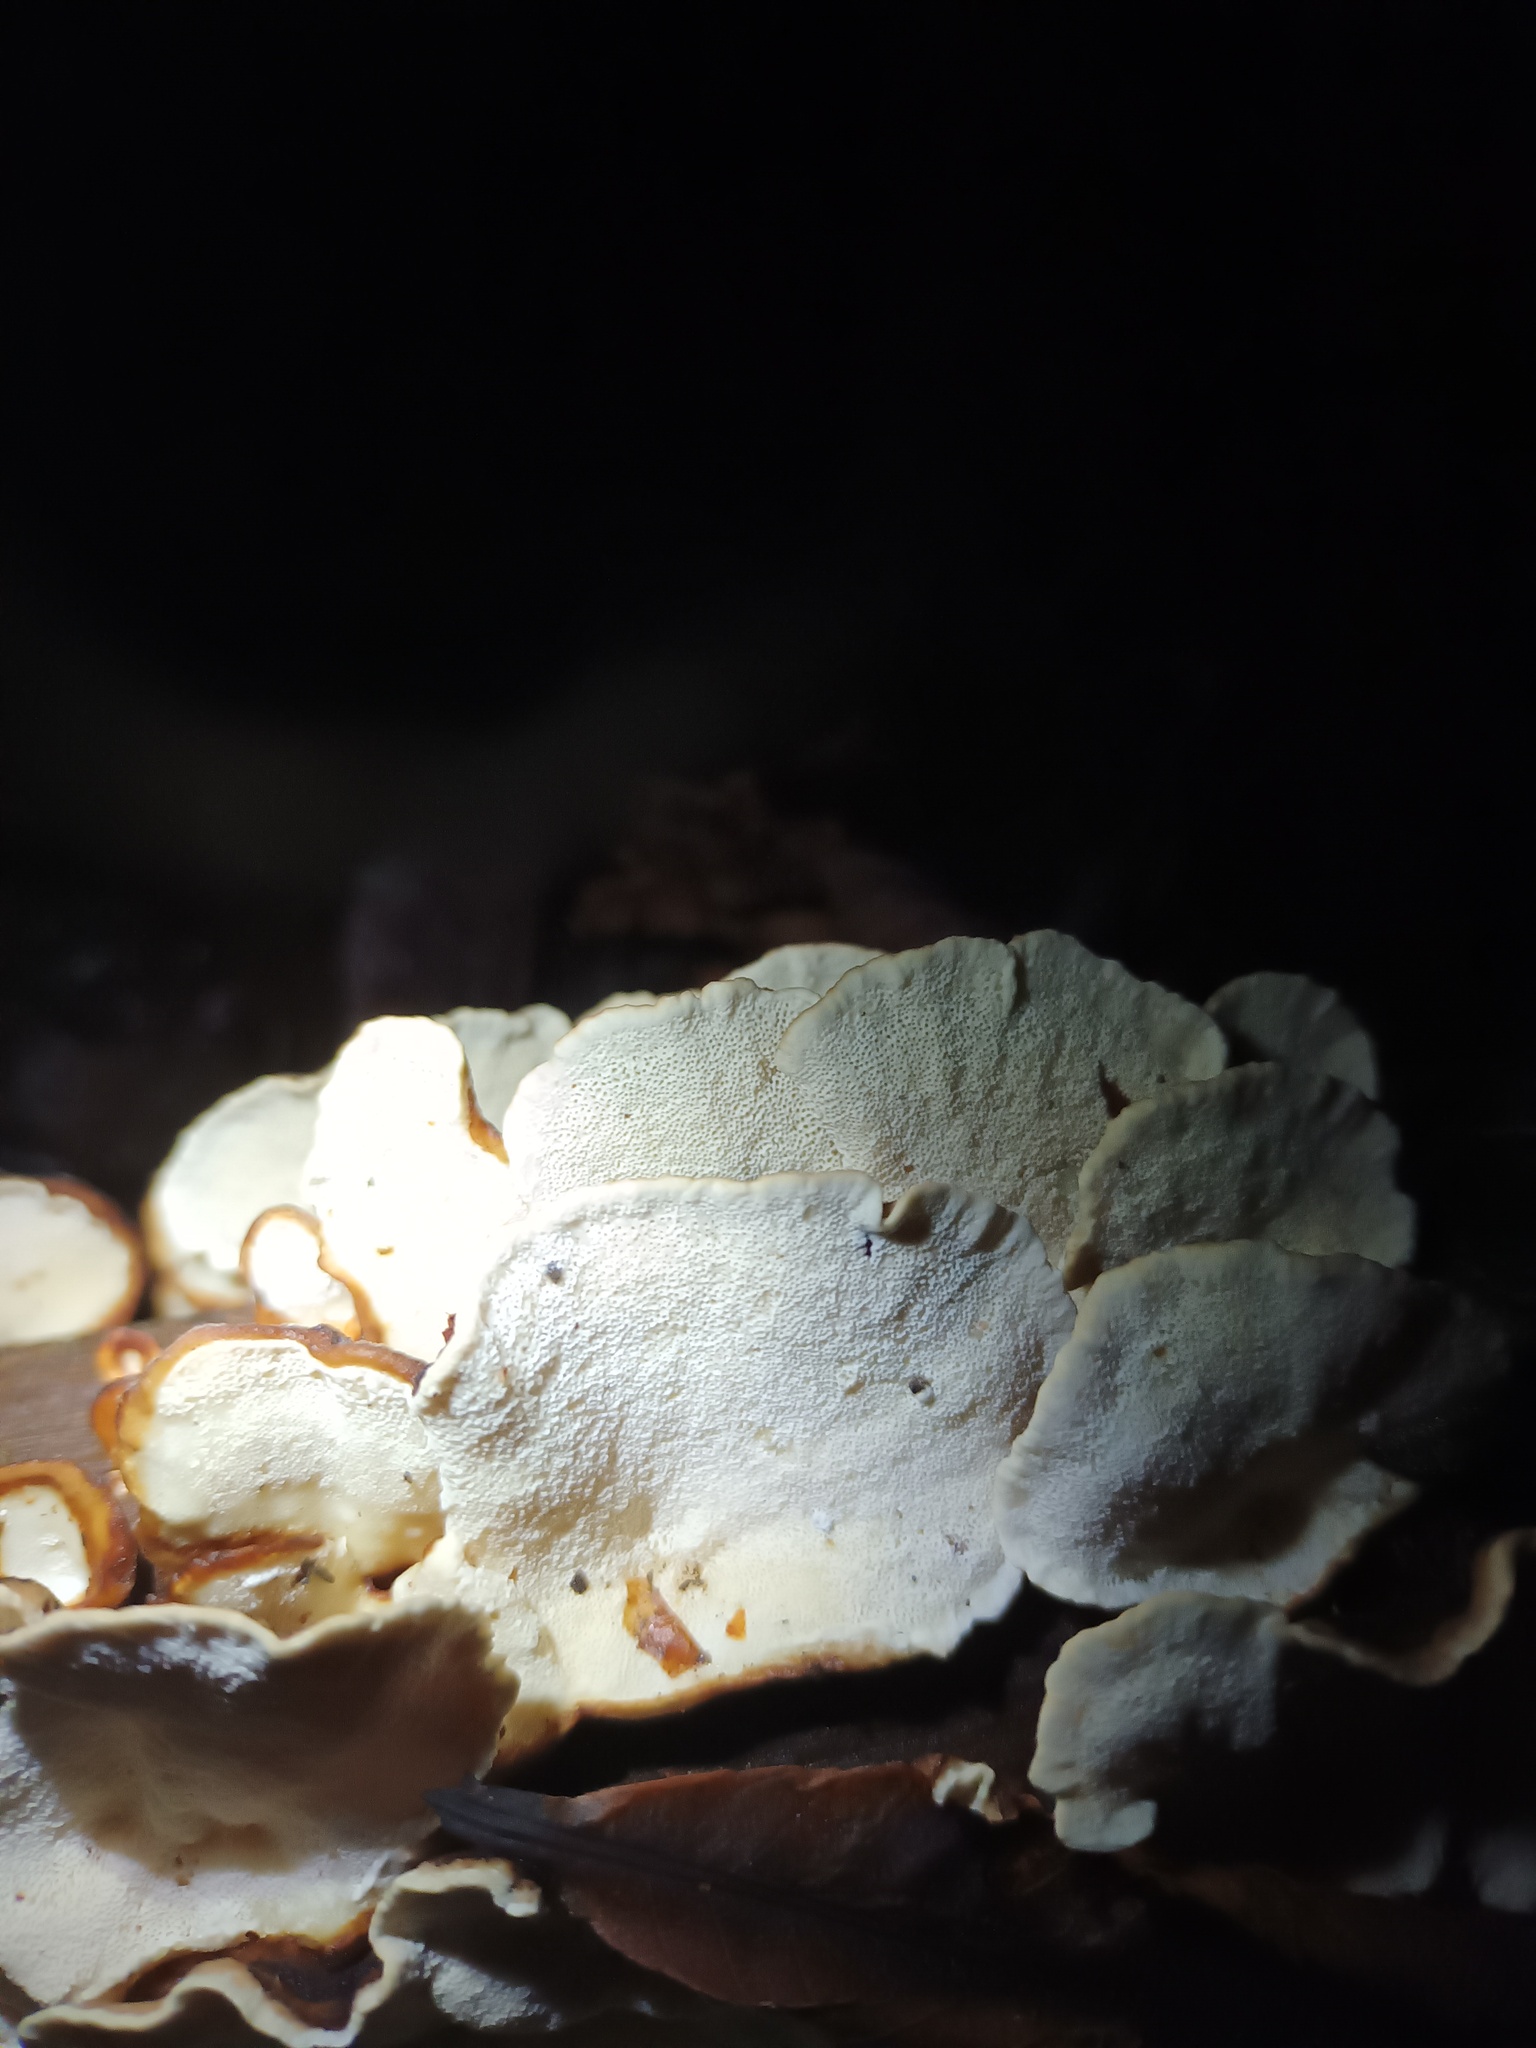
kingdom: Fungi
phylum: Basidiomycota
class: Agaricomycetes
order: Polyporales
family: Polyporaceae
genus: Trametes
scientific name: Trametes versicolor
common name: Turkeytail
